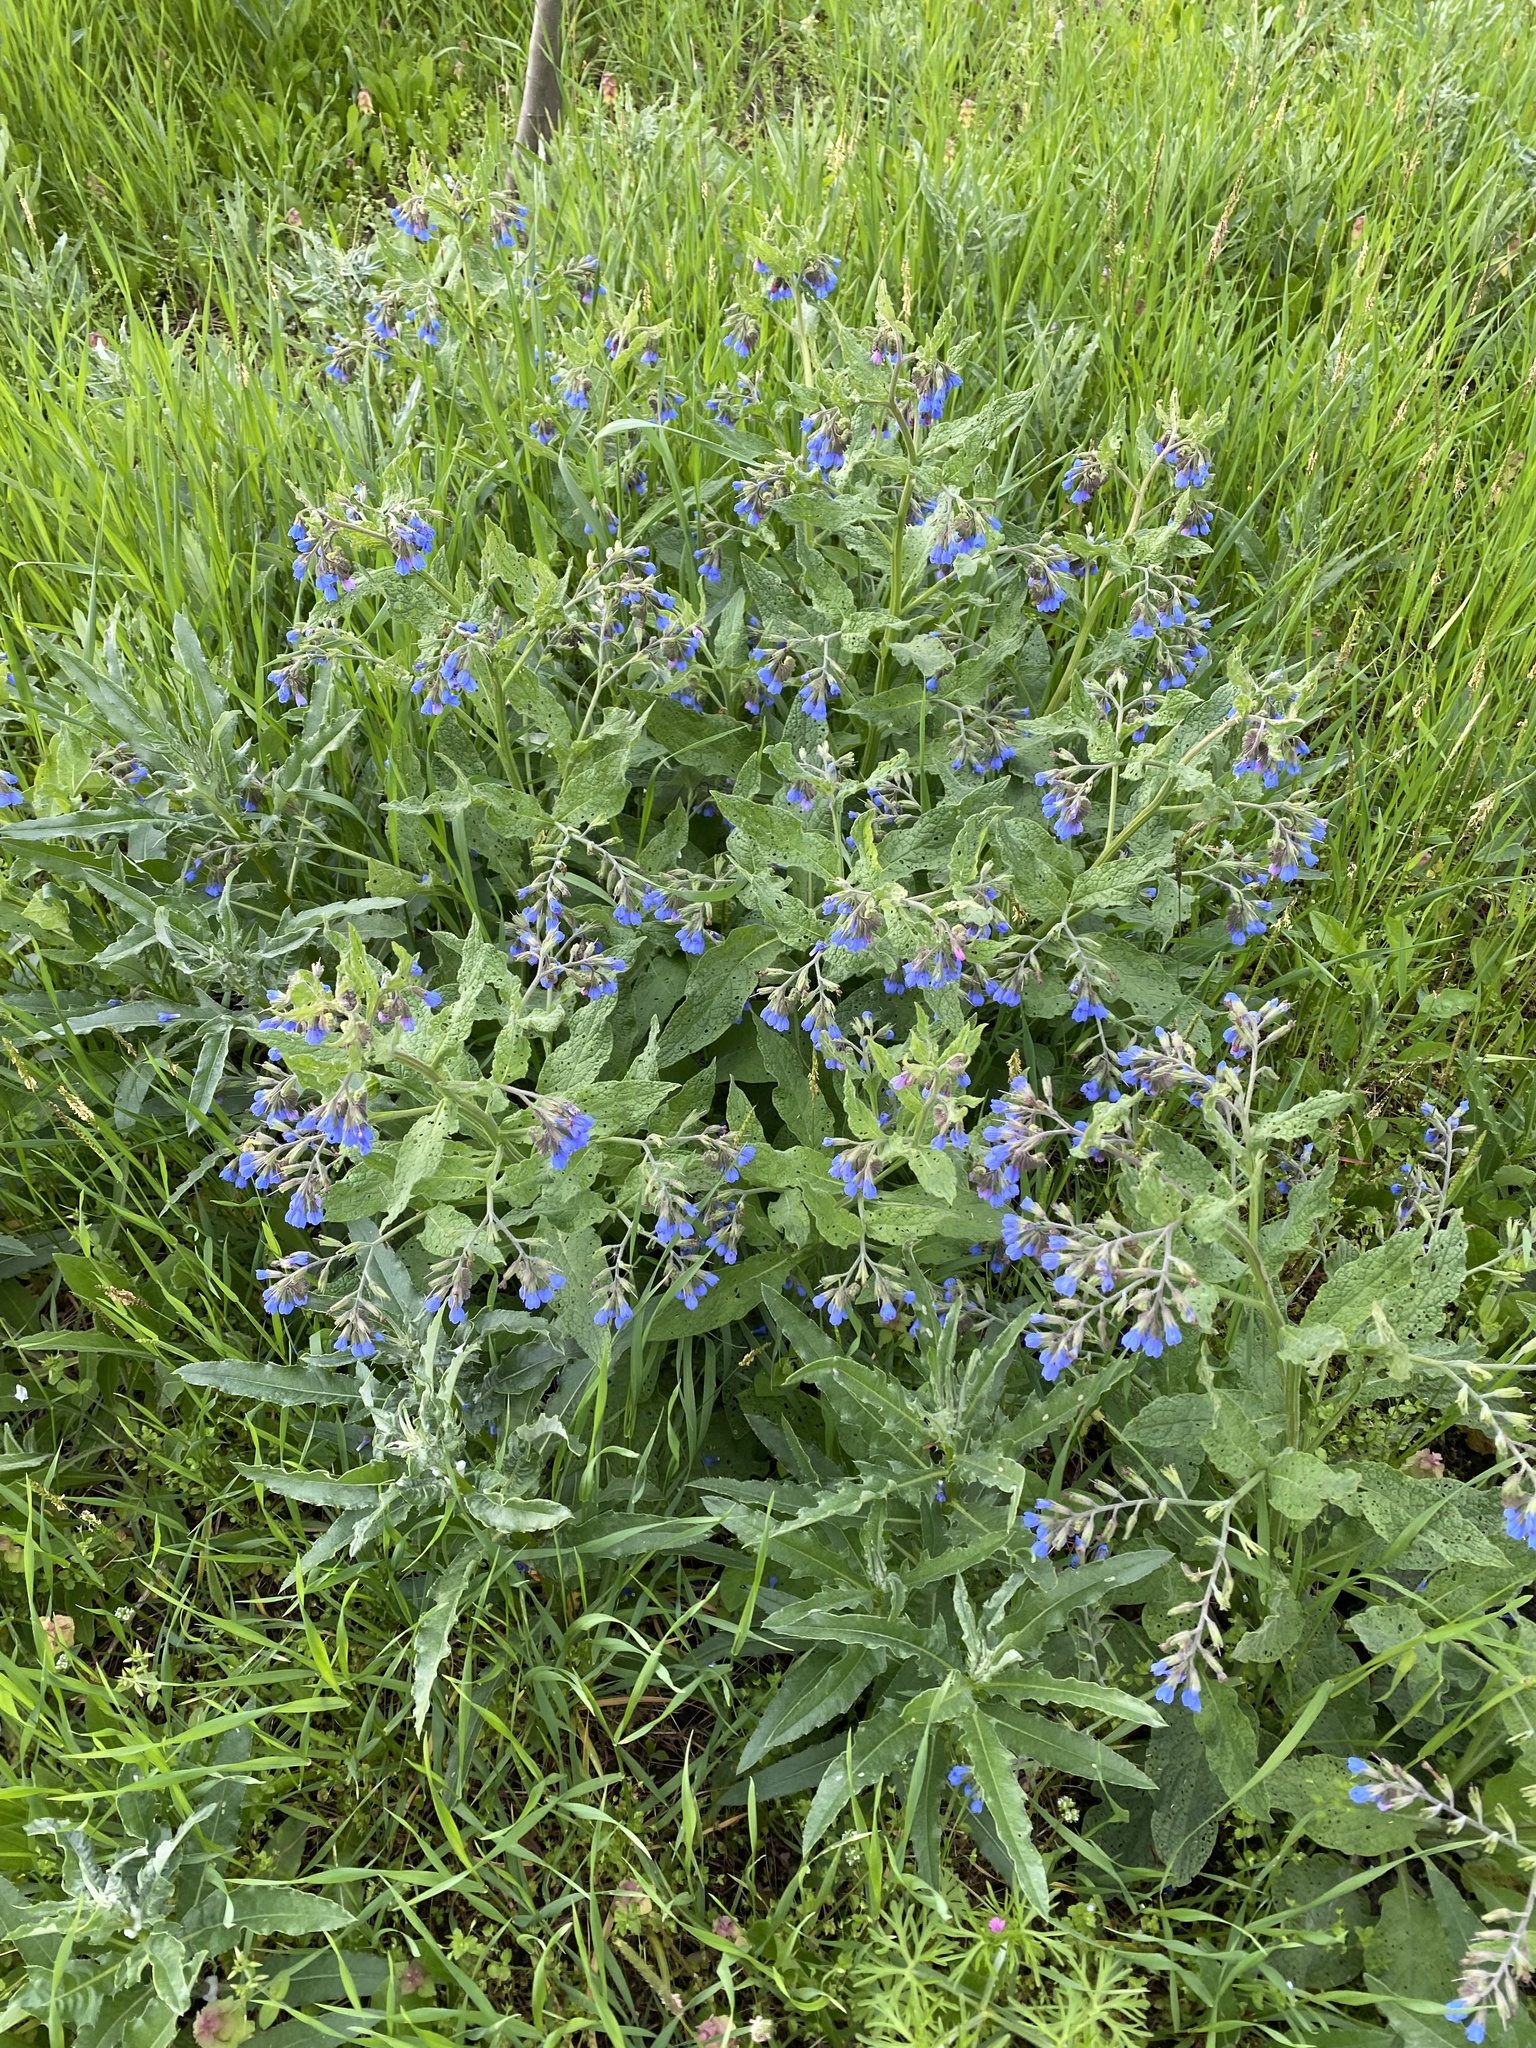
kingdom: Plantae
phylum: Tracheophyta
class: Magnoliopsida
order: Boraginales
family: Boraginaceae
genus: Symphytum
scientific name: Symphytum asperum
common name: Prickly comfrey
